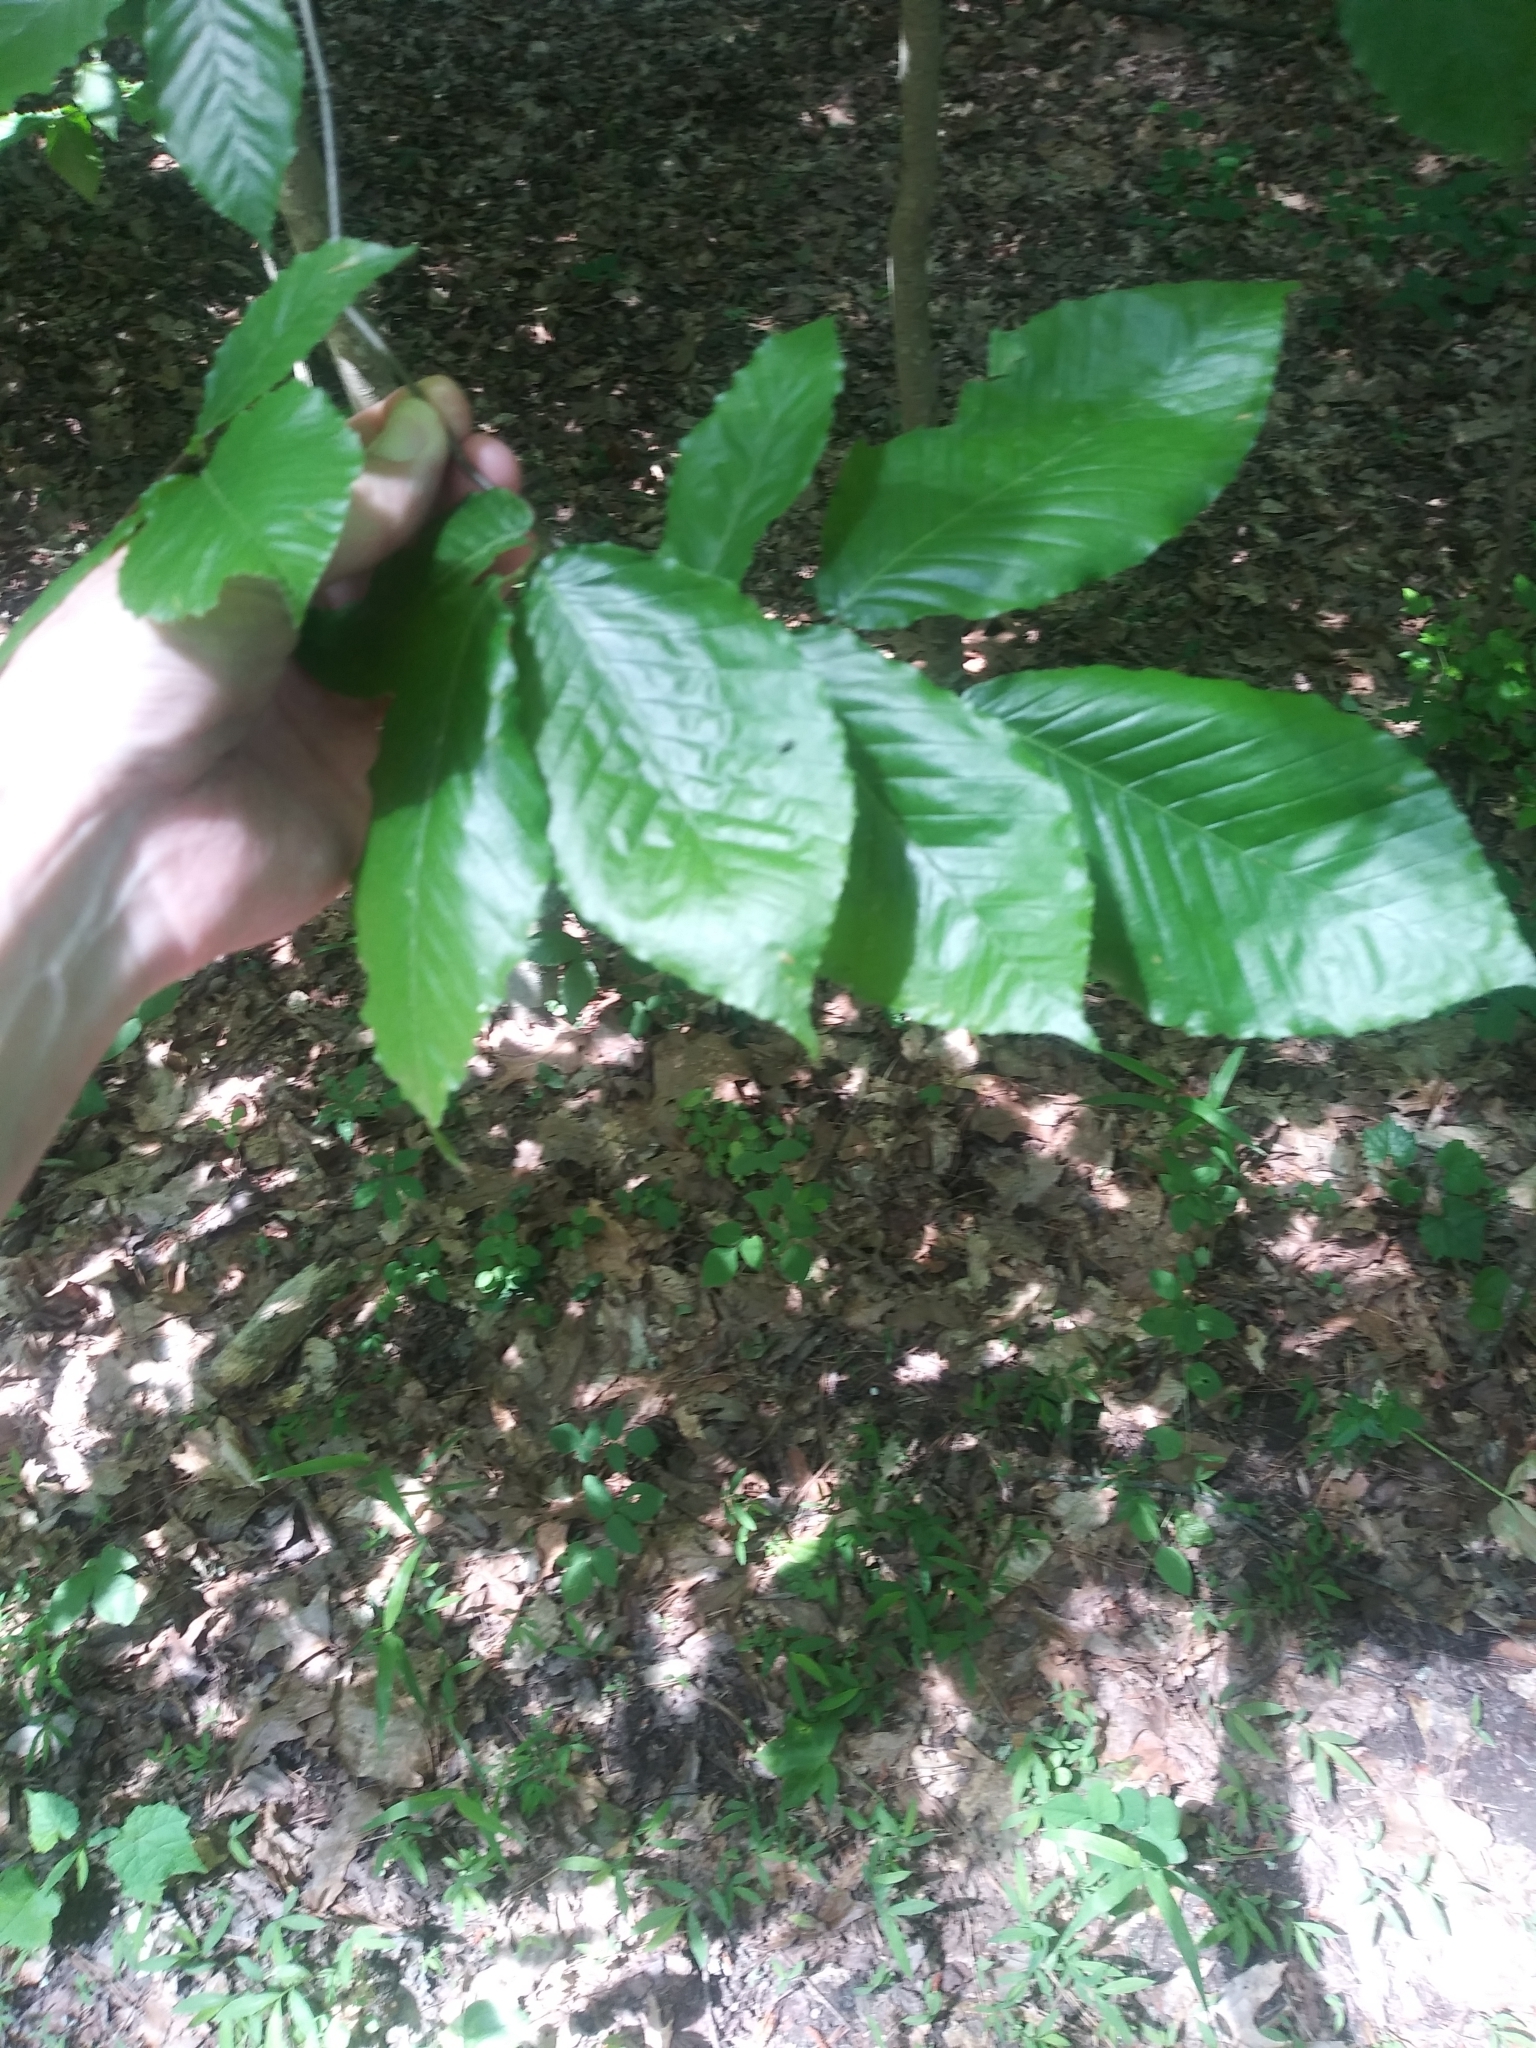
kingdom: Plantae
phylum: Tracheophyta
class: Magnoliopsida
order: Fagales
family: Fagaceae
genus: Fagus
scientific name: Fagus grandifolia
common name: American beech
